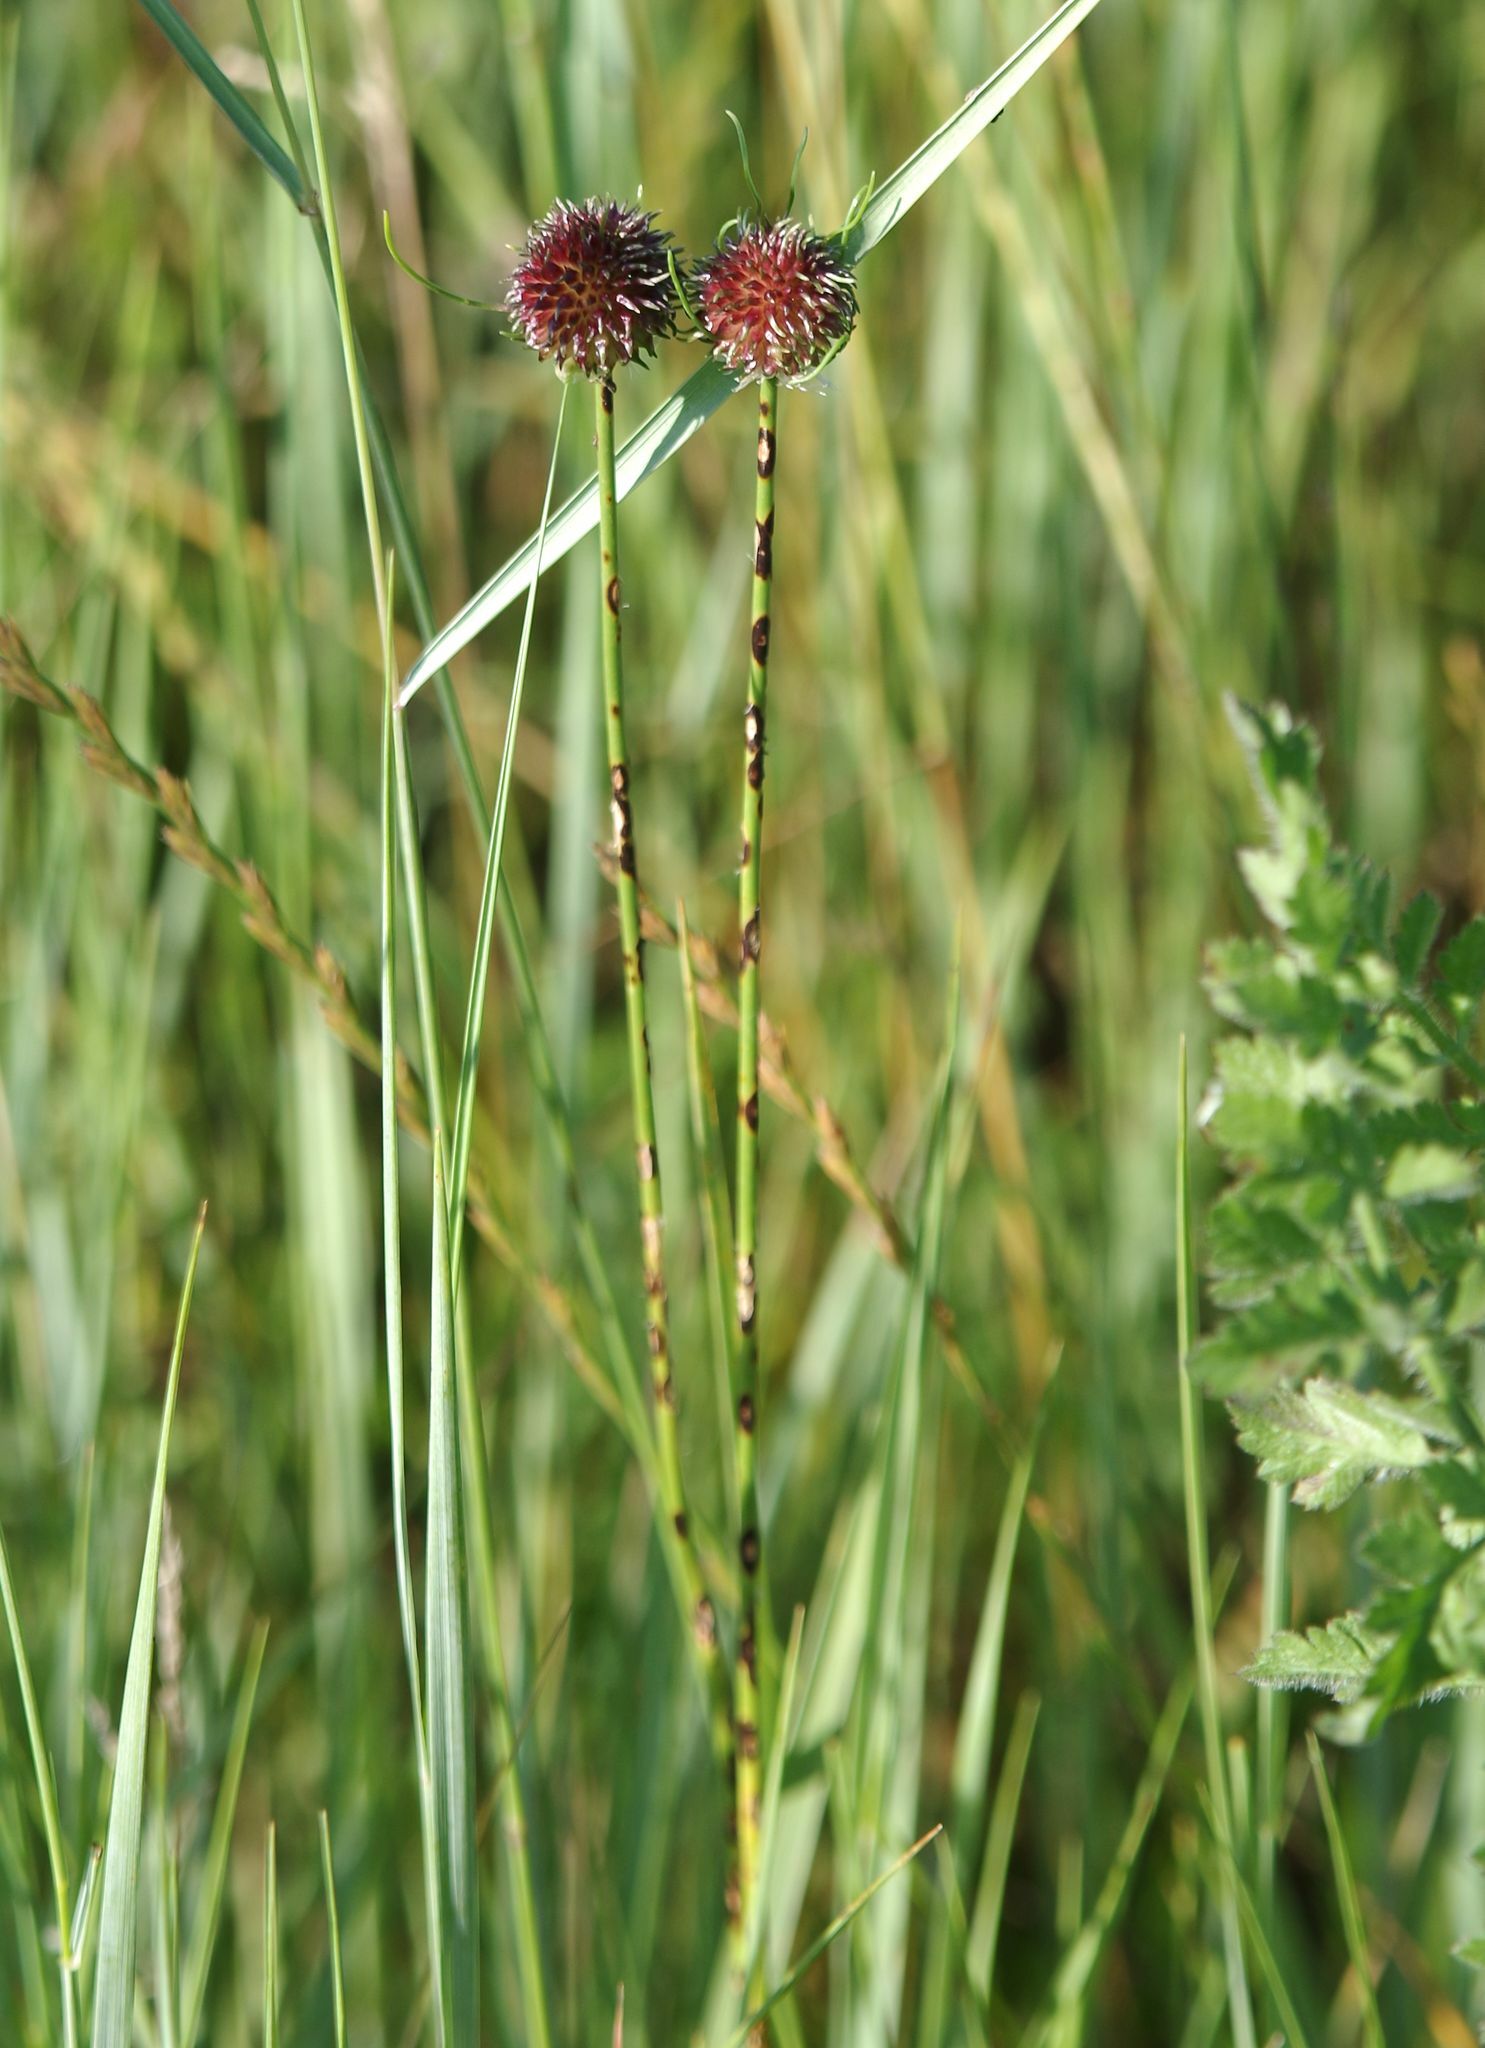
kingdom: Plantae
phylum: Tracheophyta
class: Liliopsida
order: Asparagales
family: Amaryllidaceae
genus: Allium
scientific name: Allium vineale
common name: Crow garlic
